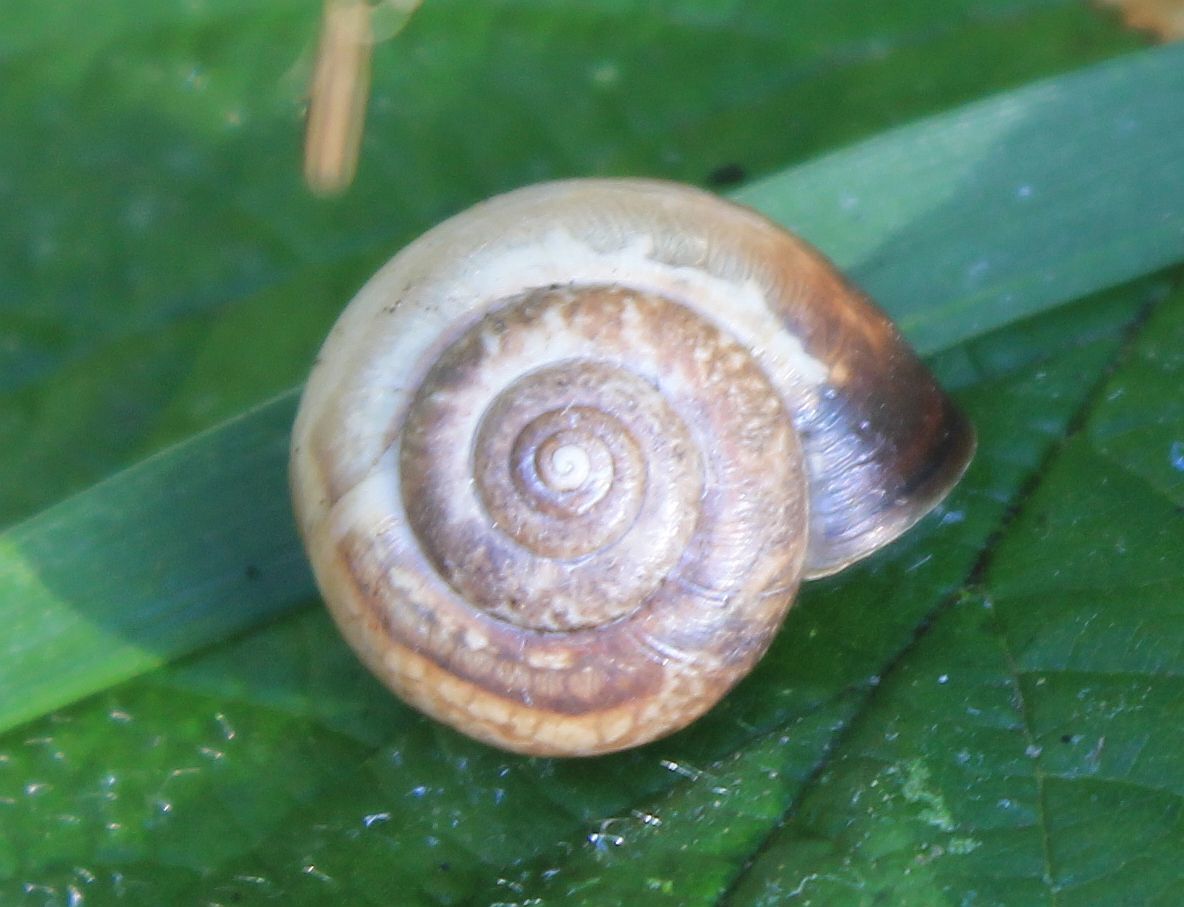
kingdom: Animalia
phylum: Mollusca
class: Gastropoda
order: Stylommatophora
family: Hygromiidae
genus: Monacha
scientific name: Monacha cantiana
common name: Kentish snail
